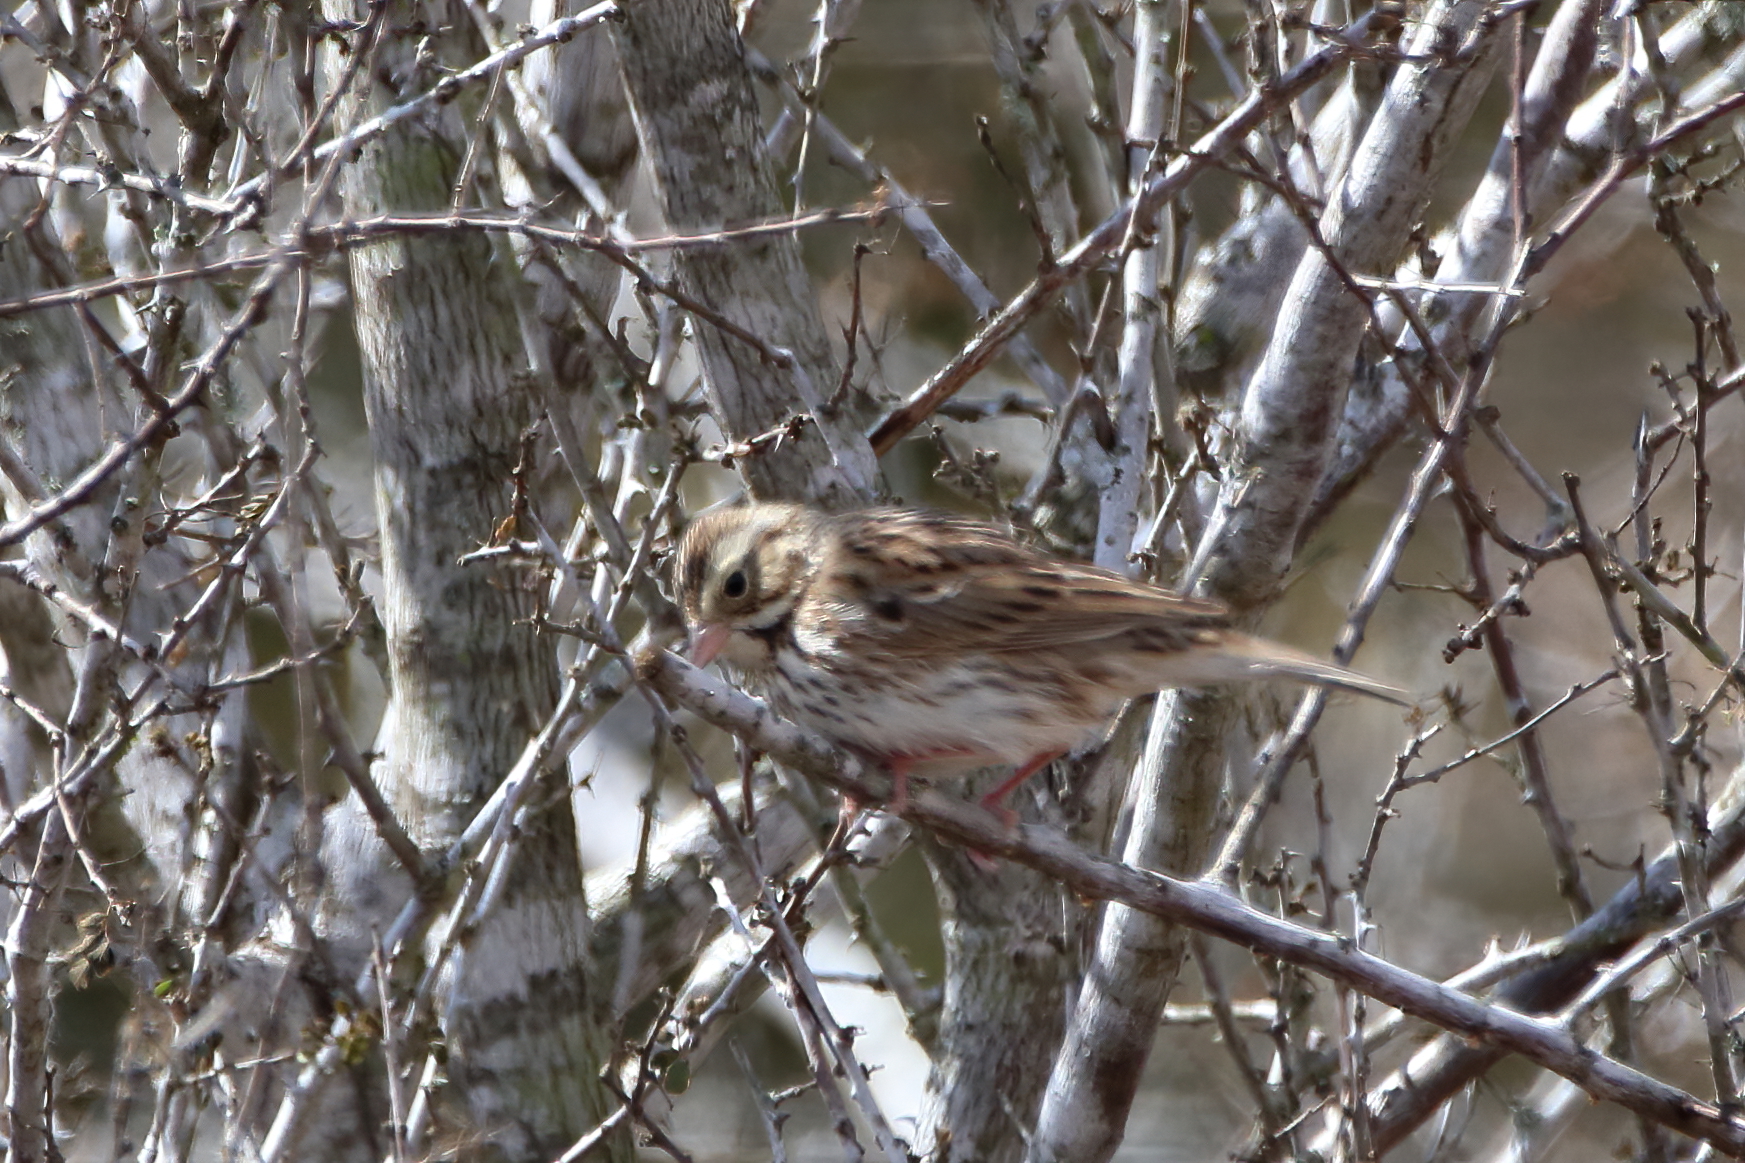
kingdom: Animalia
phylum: Chordata
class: Aves
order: Passeriformes
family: Passerellidae
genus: Passerculus
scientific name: Passerculus sandwichensis
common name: Savannah sparrow
